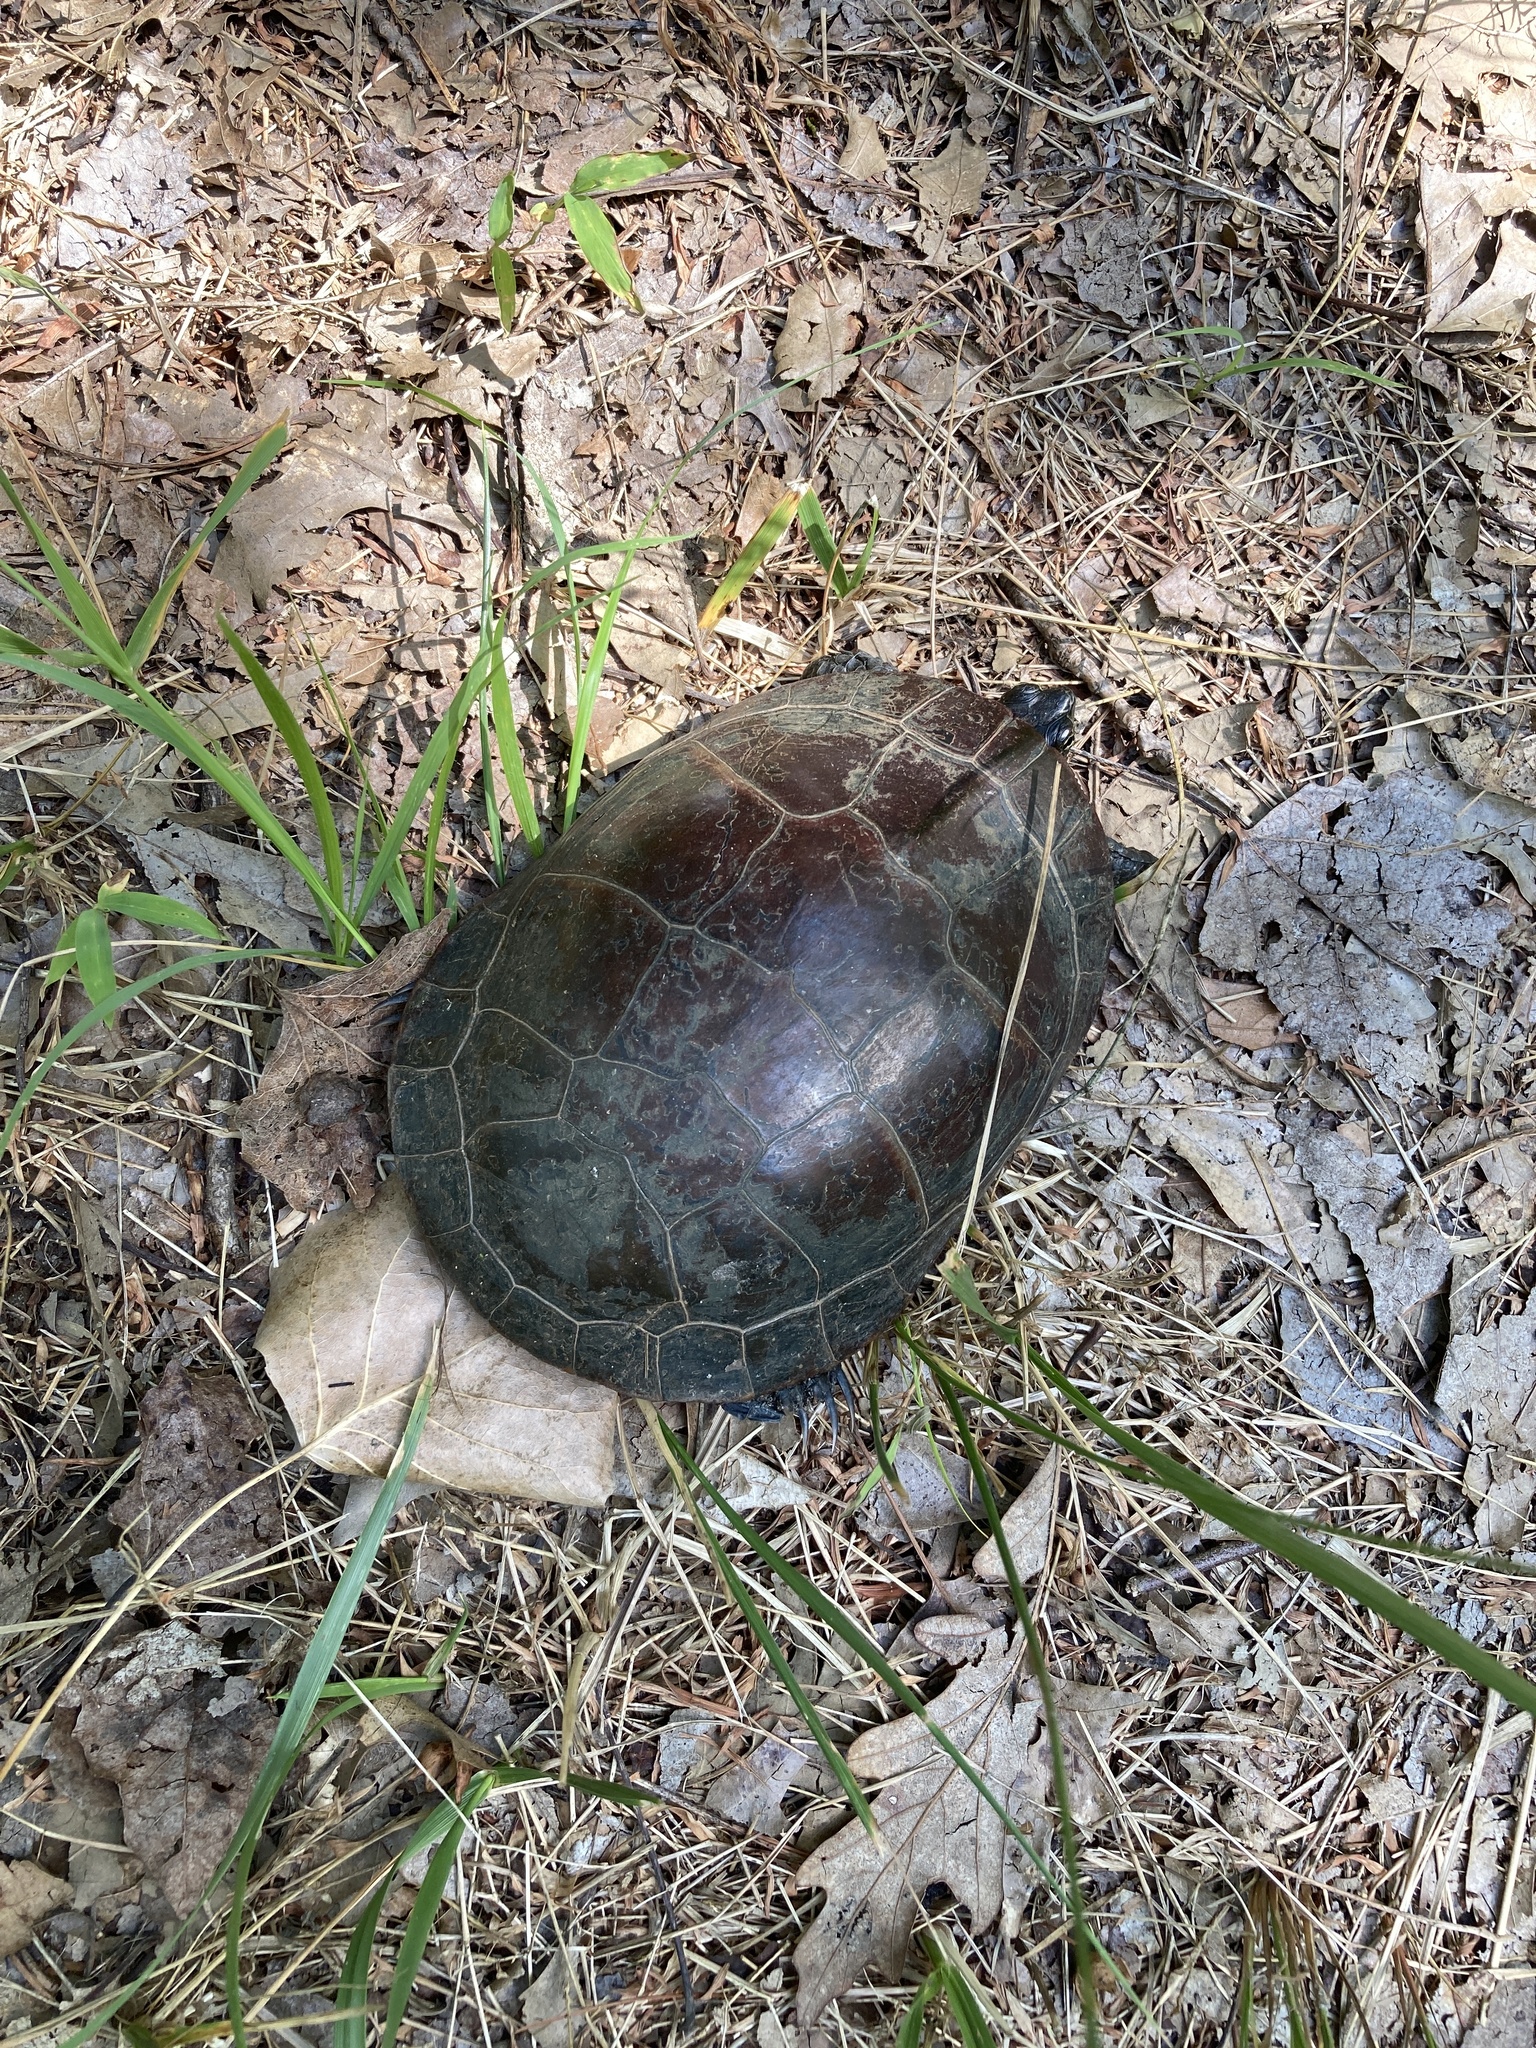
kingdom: Animalia
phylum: Chordata
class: Testudines
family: Emydidae
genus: Chrysemys
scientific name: Chrysemys picta
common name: Painted turtle
